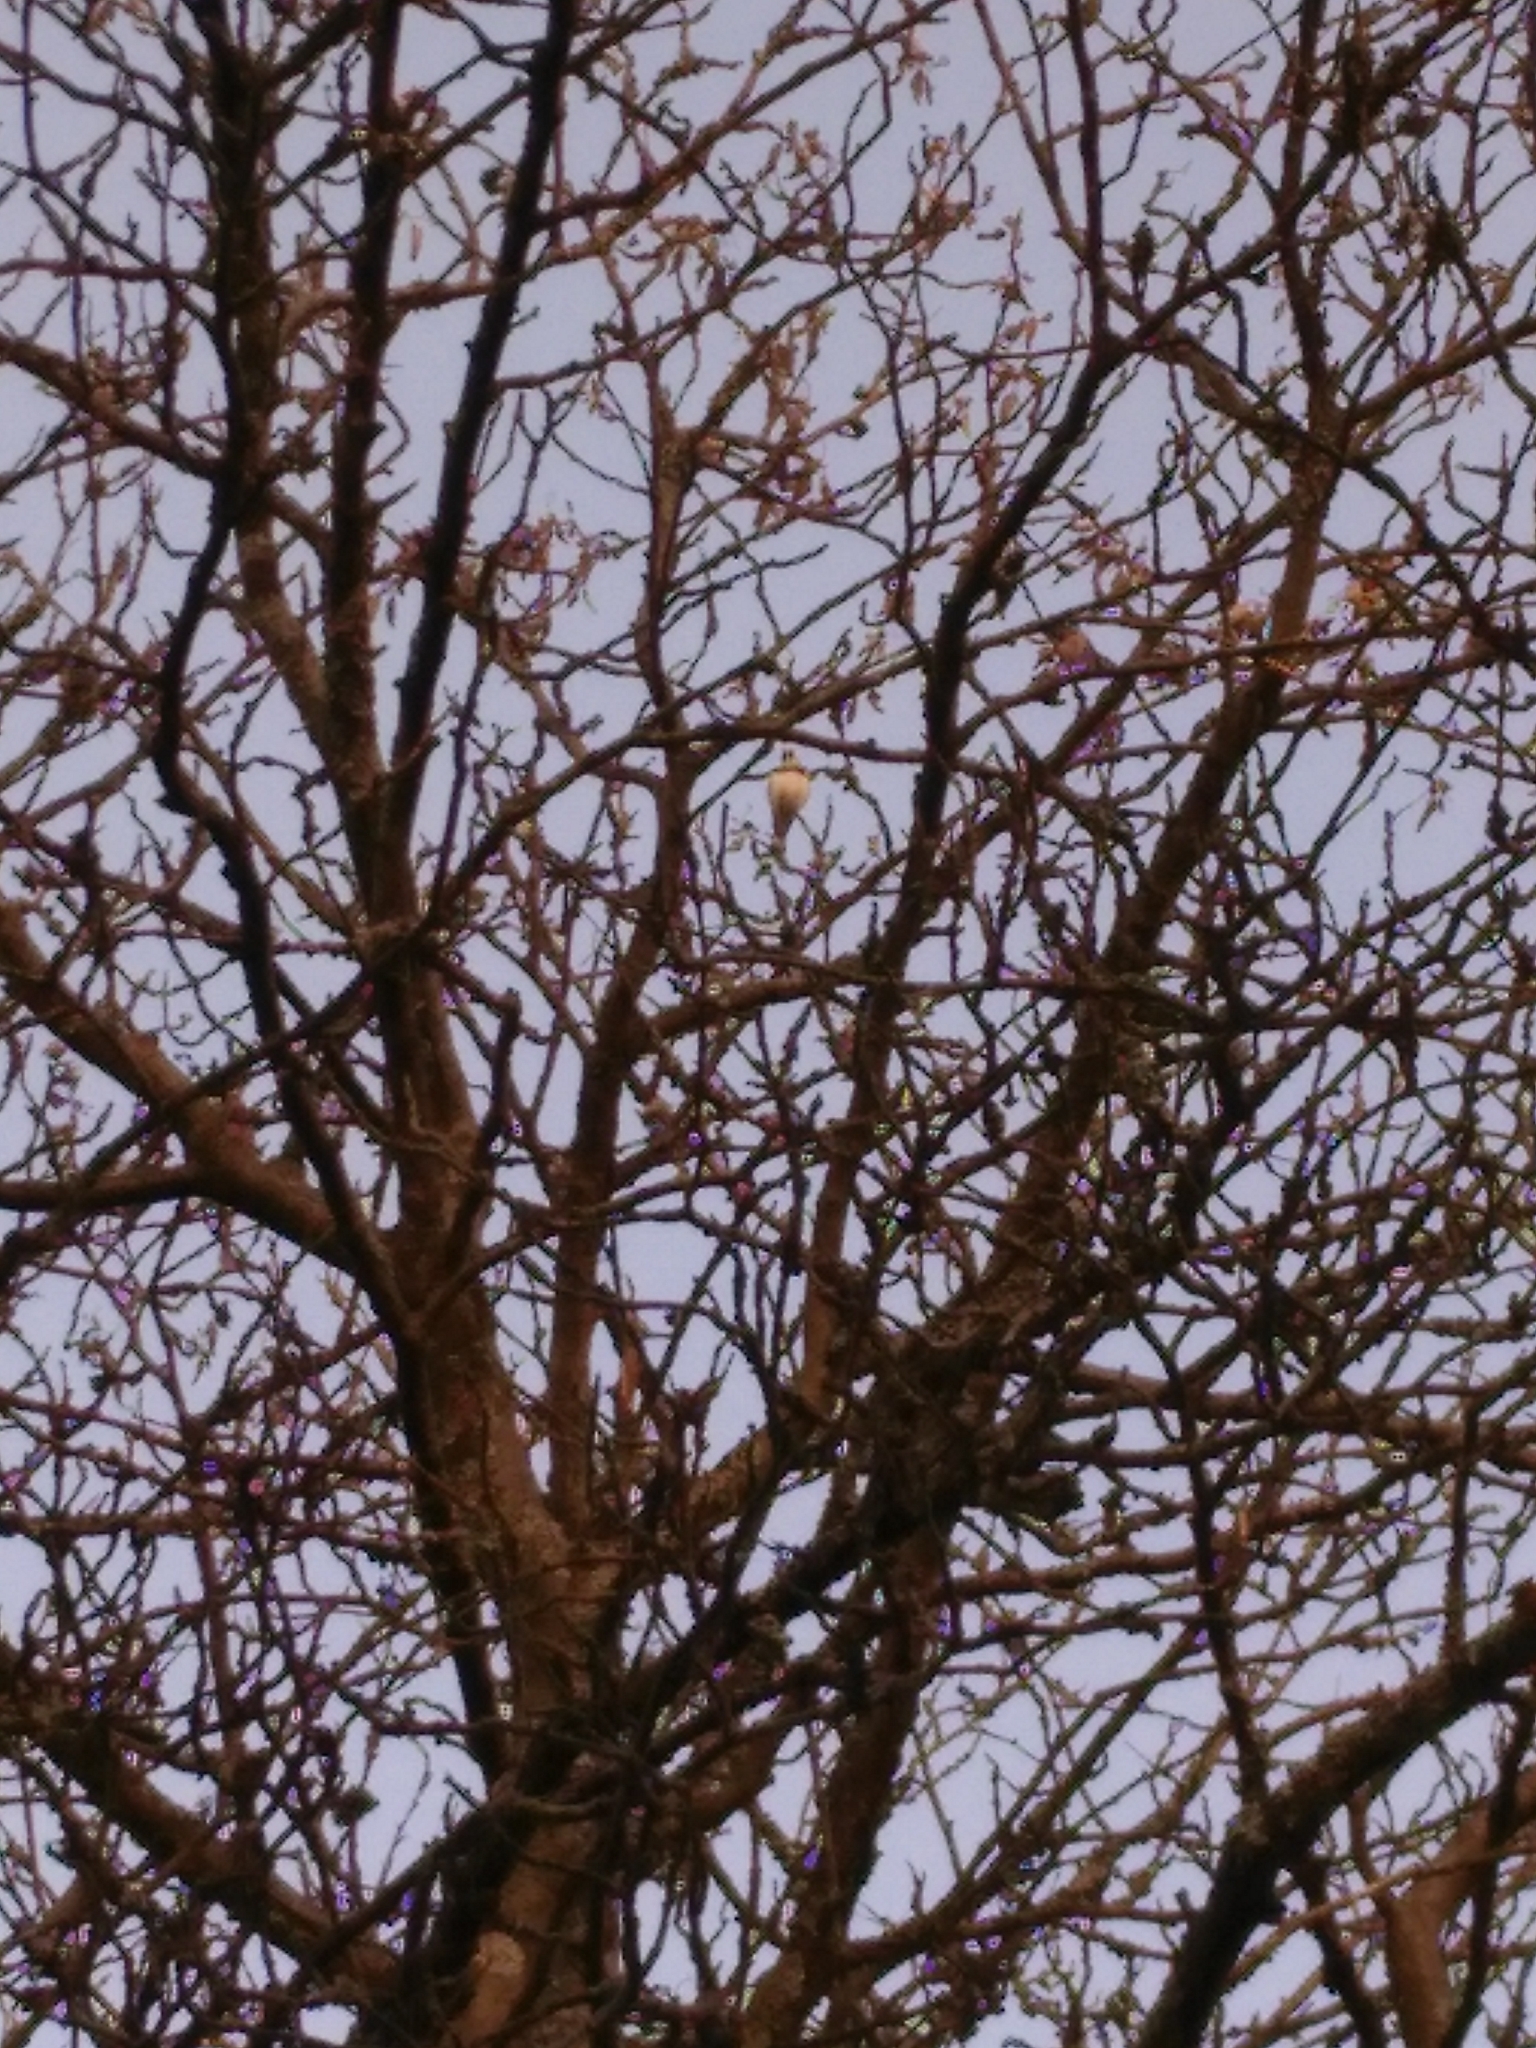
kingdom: Animalia
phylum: Chordata
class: Aves
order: Passeriformes
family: Fringillidae
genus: Carduelis
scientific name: Carduelis carduelis
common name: European goldfinch
